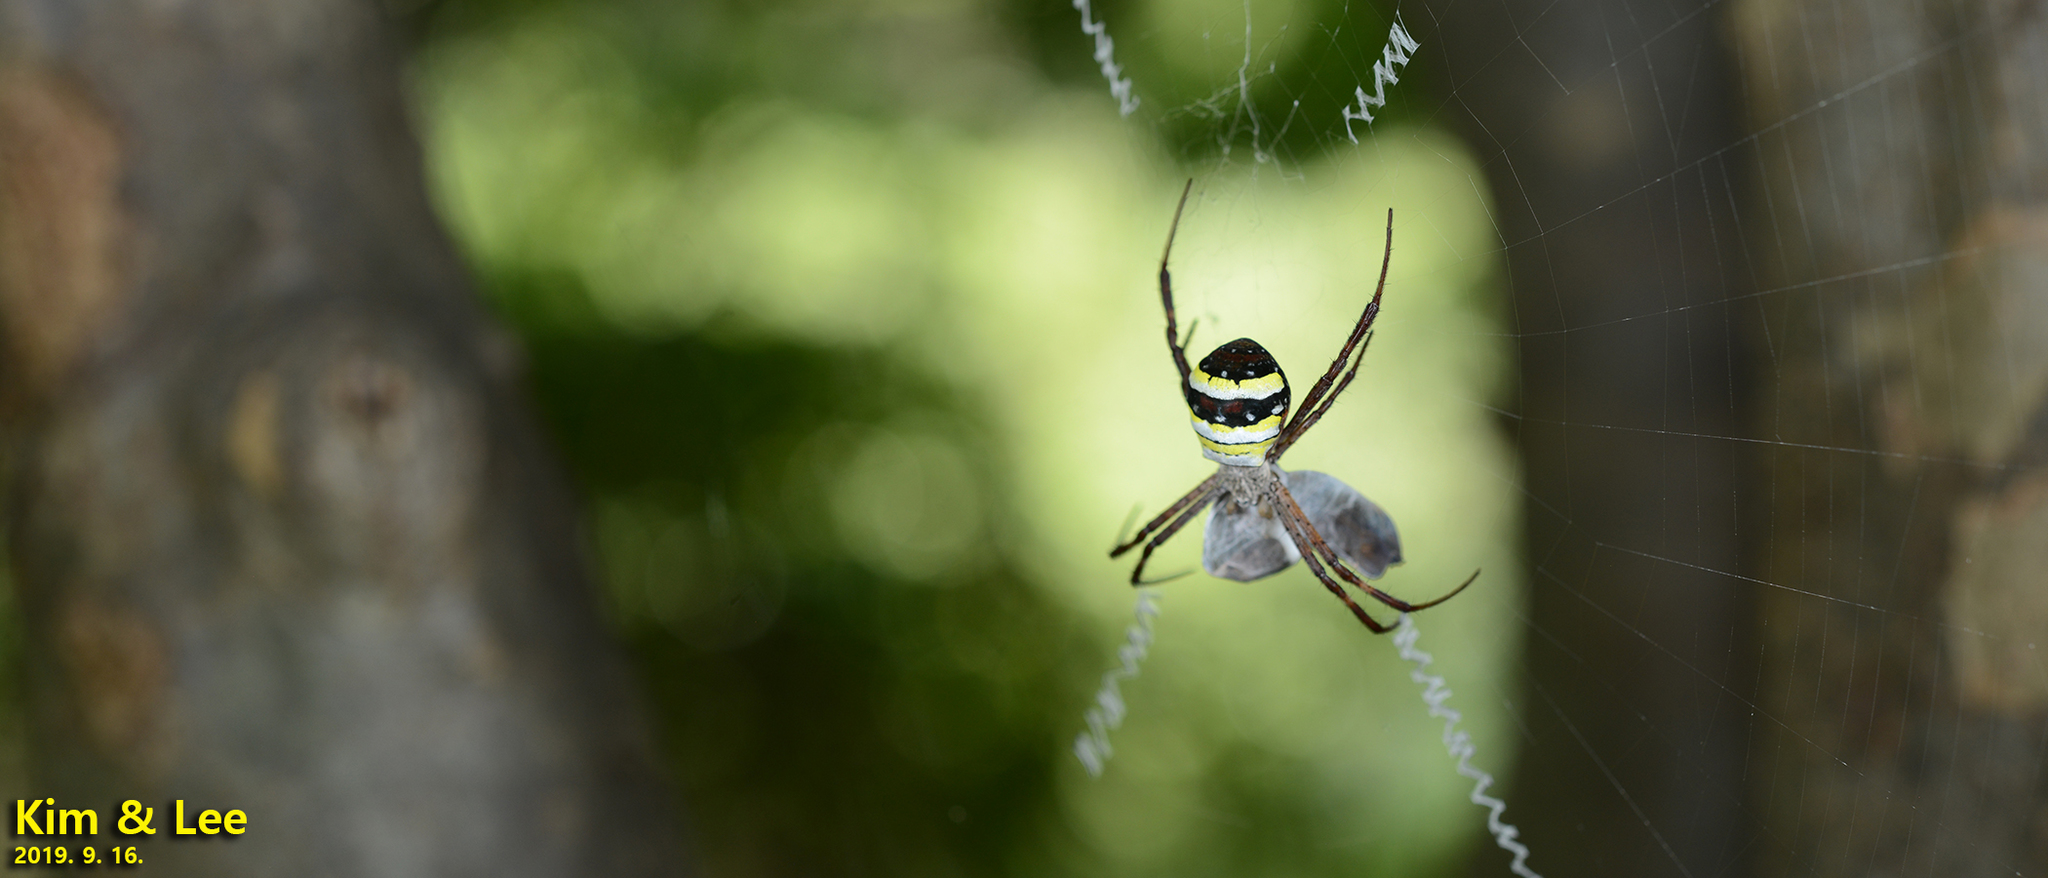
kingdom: Animalia
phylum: Arthropoda
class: Arachnida
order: Araneae
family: Araneidae
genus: Argiope
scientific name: Argiope minuta
